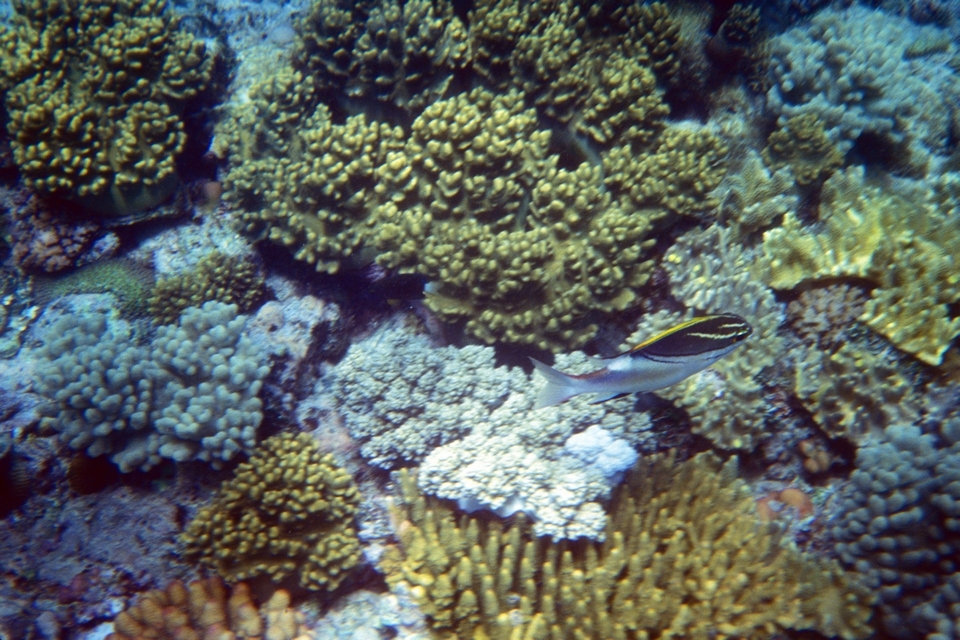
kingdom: Animalia
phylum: Chordata
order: Perciformes
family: Nemipteridae
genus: Scolopsis
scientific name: Scolopsis bilineata
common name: Two-lined monocle bream
